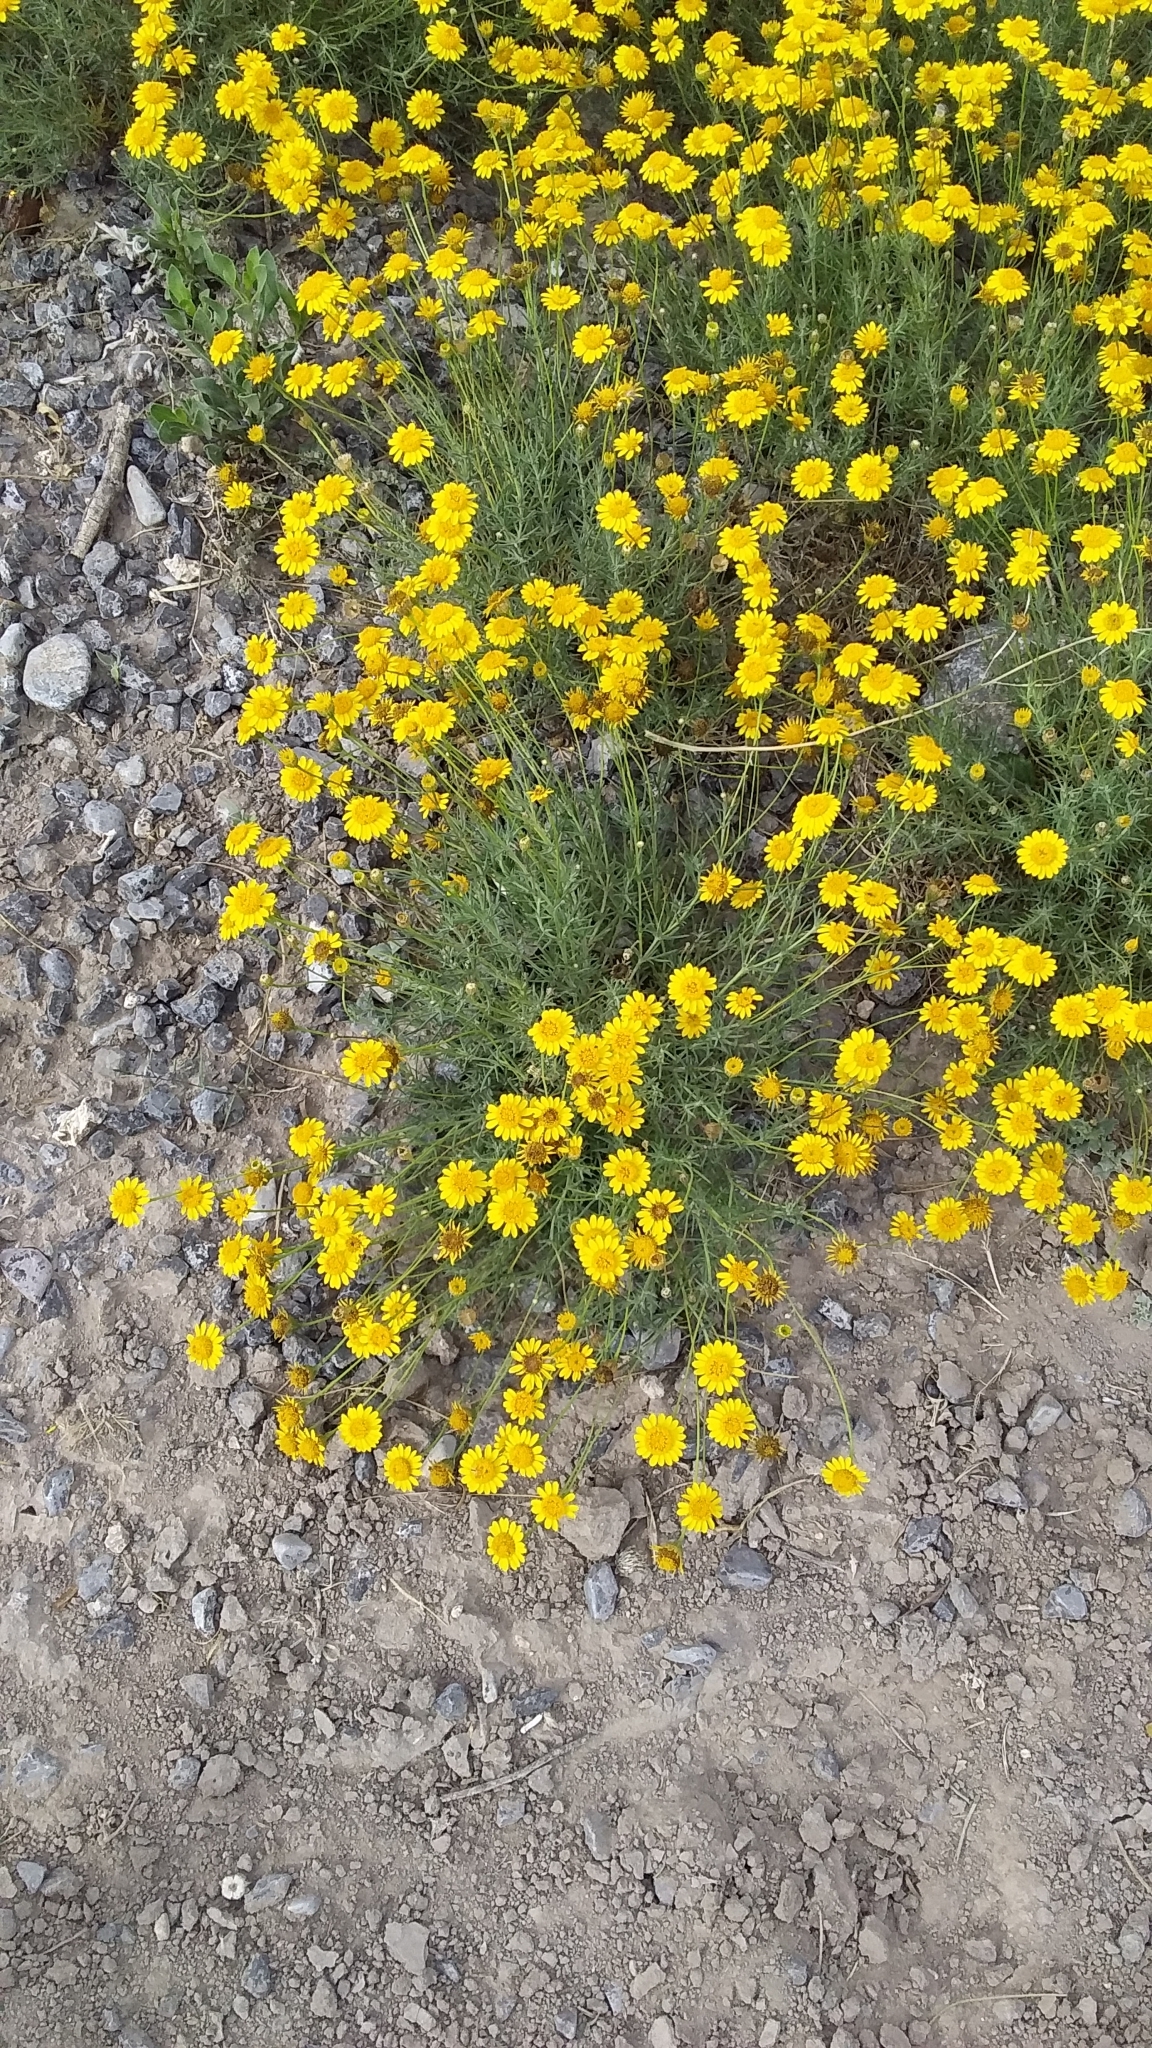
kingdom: Plantae
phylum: Tracheophyta
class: Magnoliopsida
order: Asterales
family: Asteraceae
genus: Thymophylla
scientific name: Thymophylla pentachaeta
